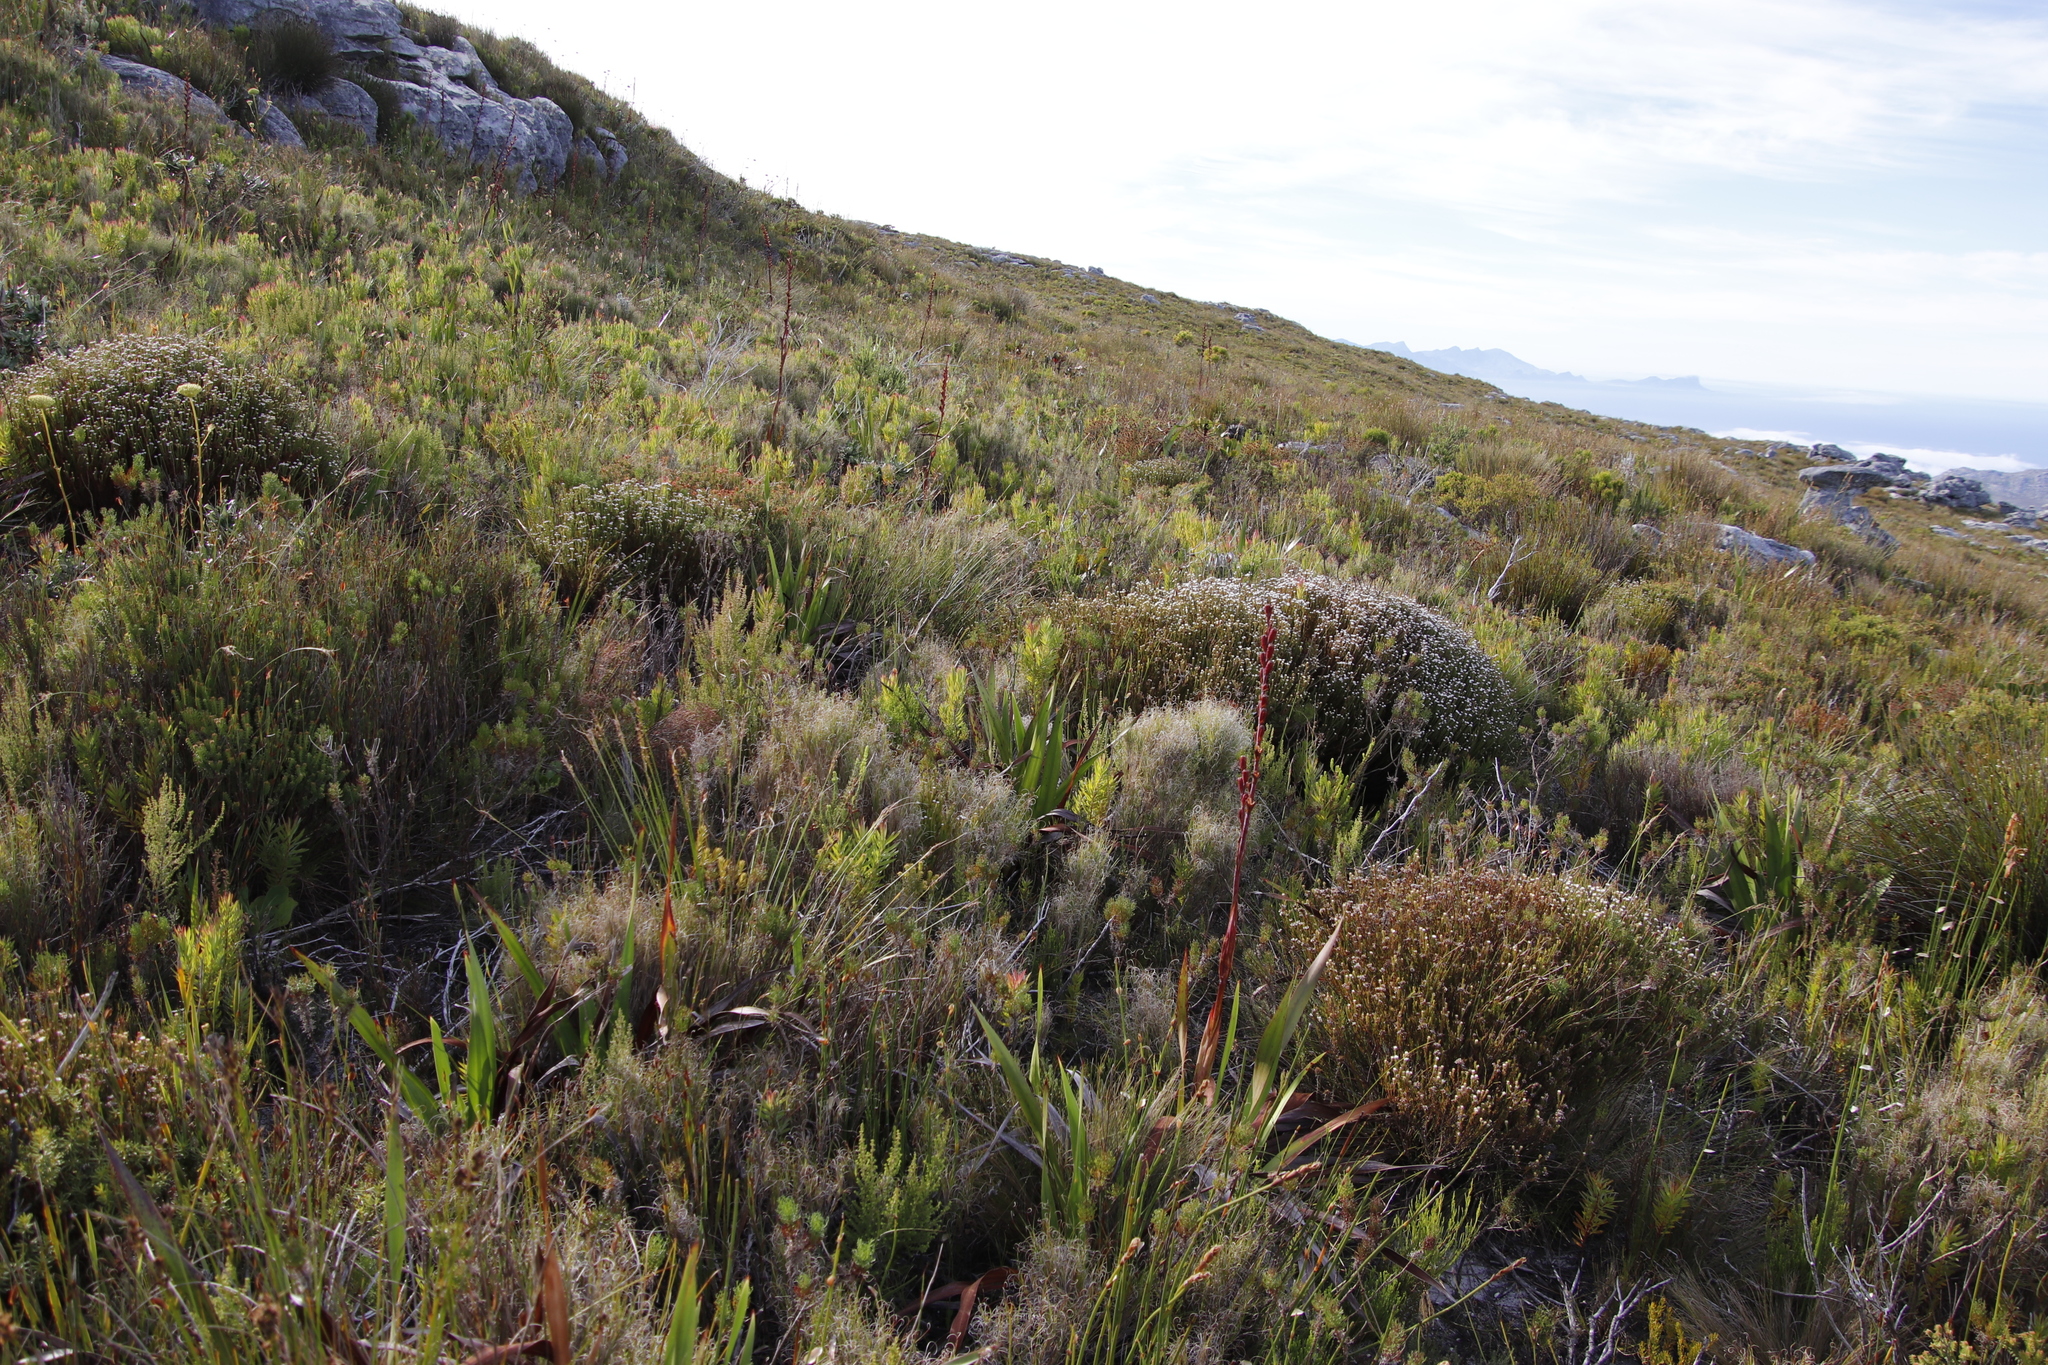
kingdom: Plantae
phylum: Tracheophyta
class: Magnoliopsida
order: Bruniales
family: Bruniaceae
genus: Staavia
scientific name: Staavia radiata
